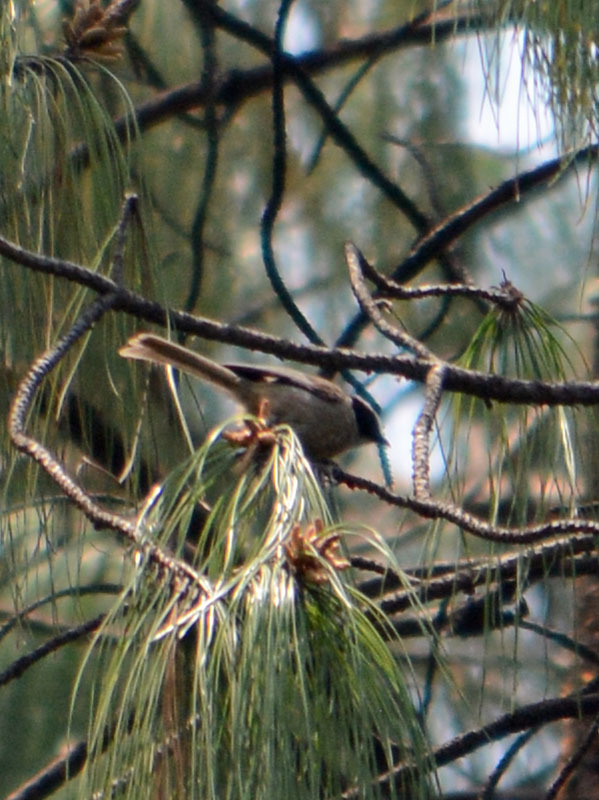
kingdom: Animalia
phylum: Chordata
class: Aves
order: Passeriformes
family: Aegithalidae
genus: Psaltriparus
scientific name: Psaltriparus minimus
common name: American bushtit
